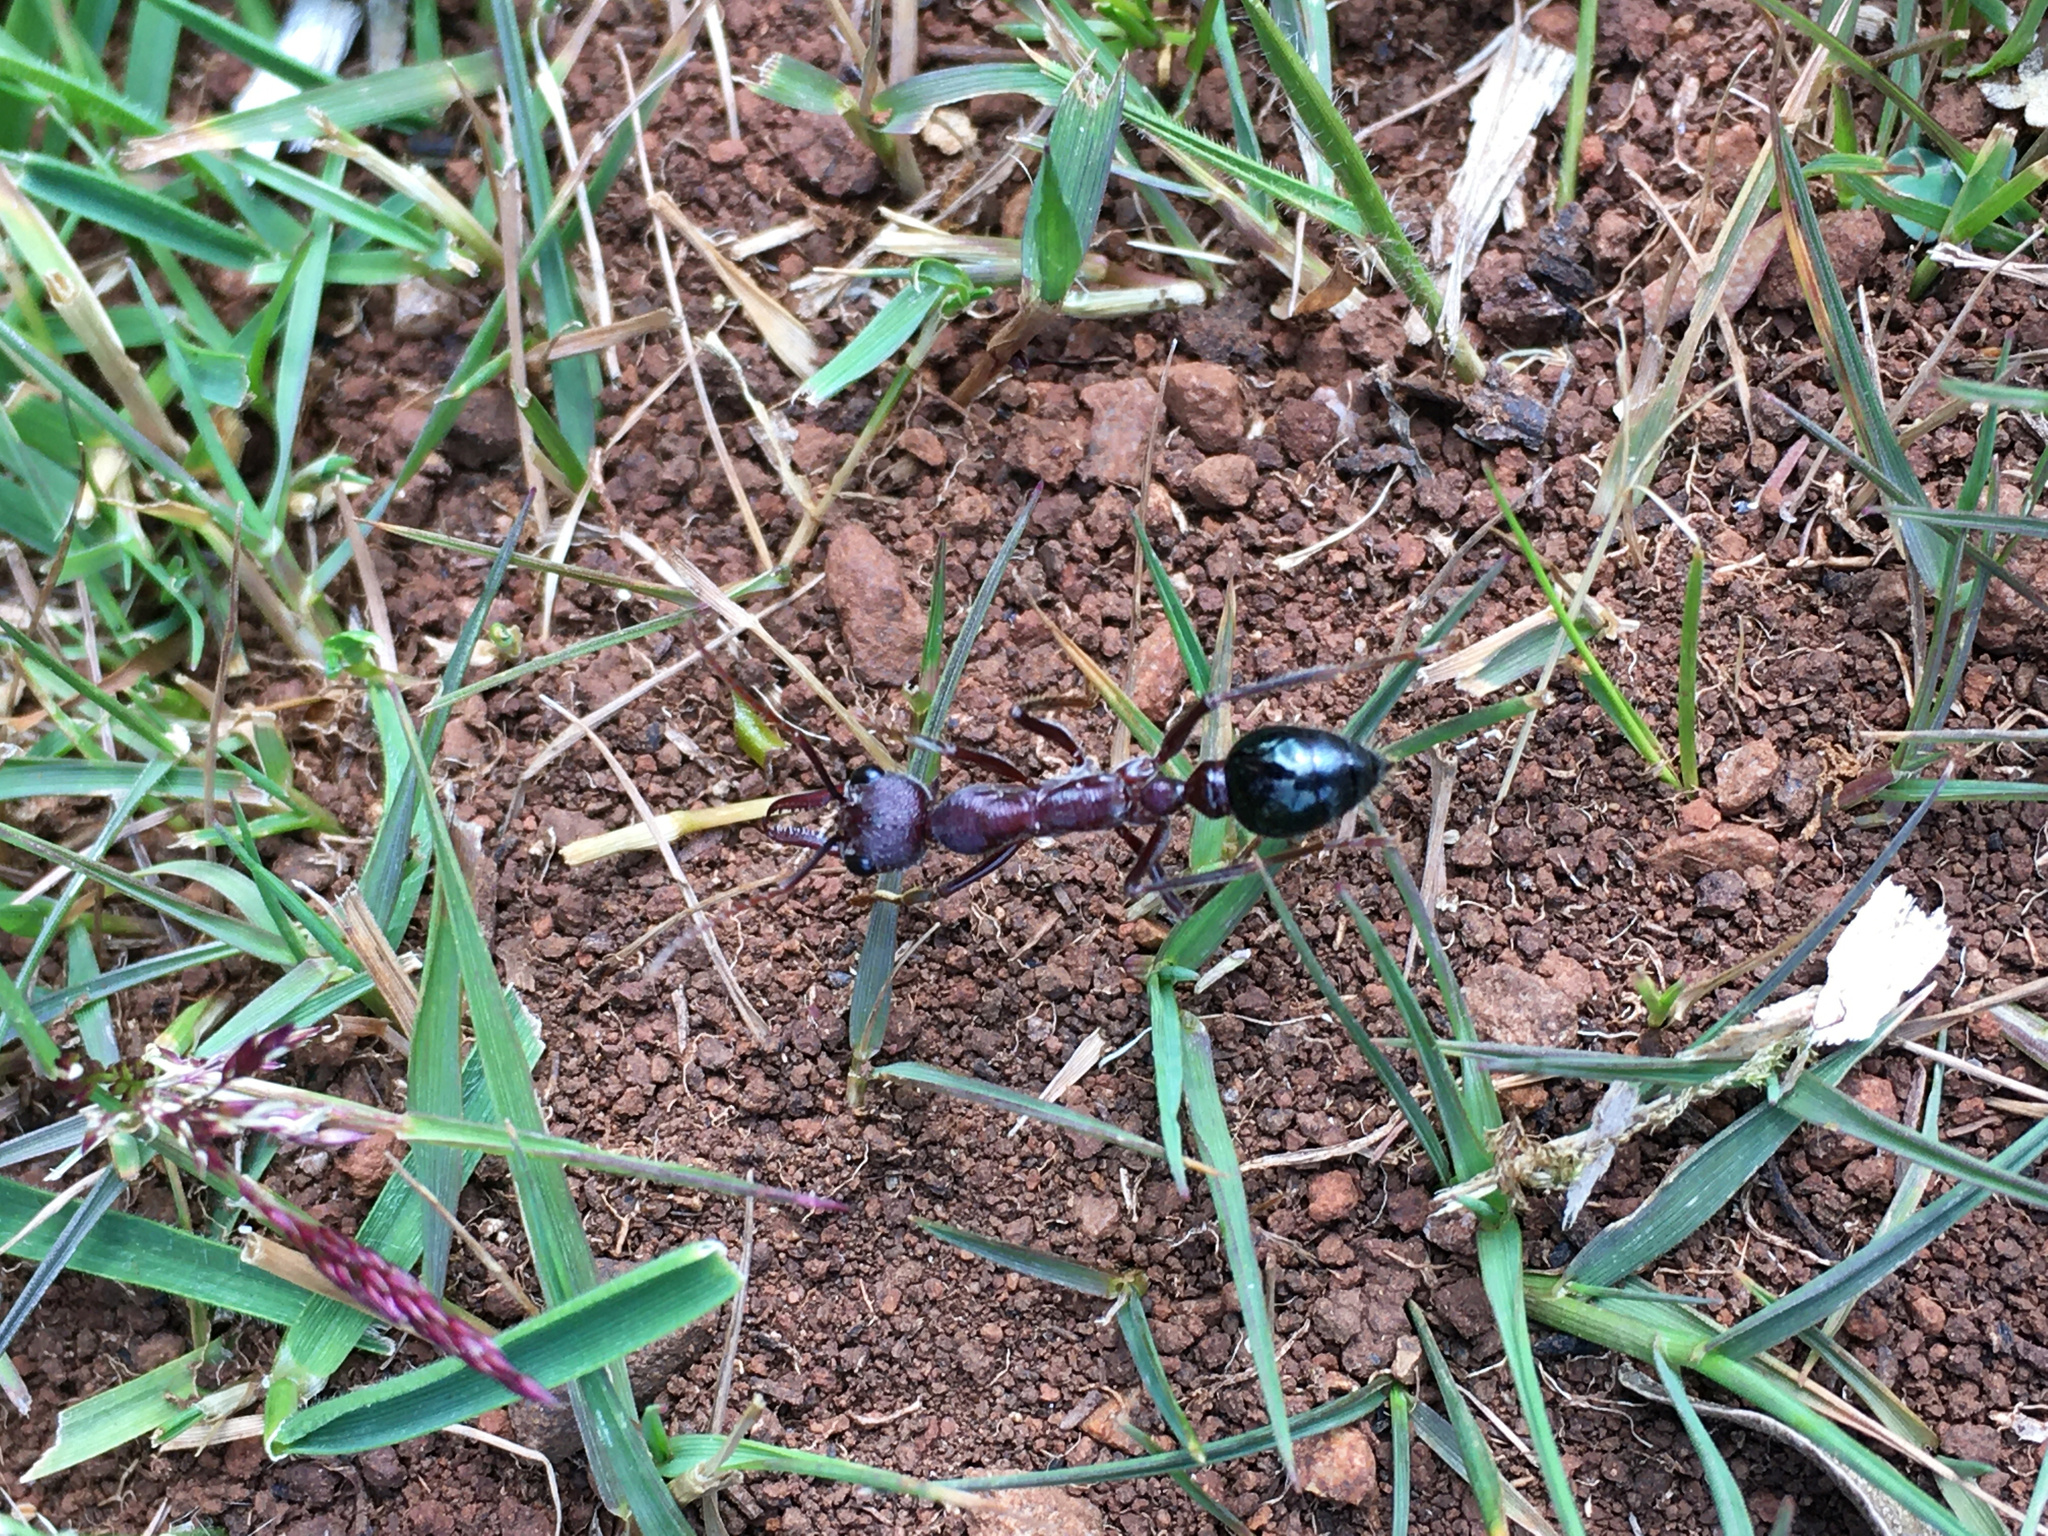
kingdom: Animalia
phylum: Arthropoda
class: Insecta
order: Hymenoptera
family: Formicidae
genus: Myrmecia
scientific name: Myrmecia forficata
